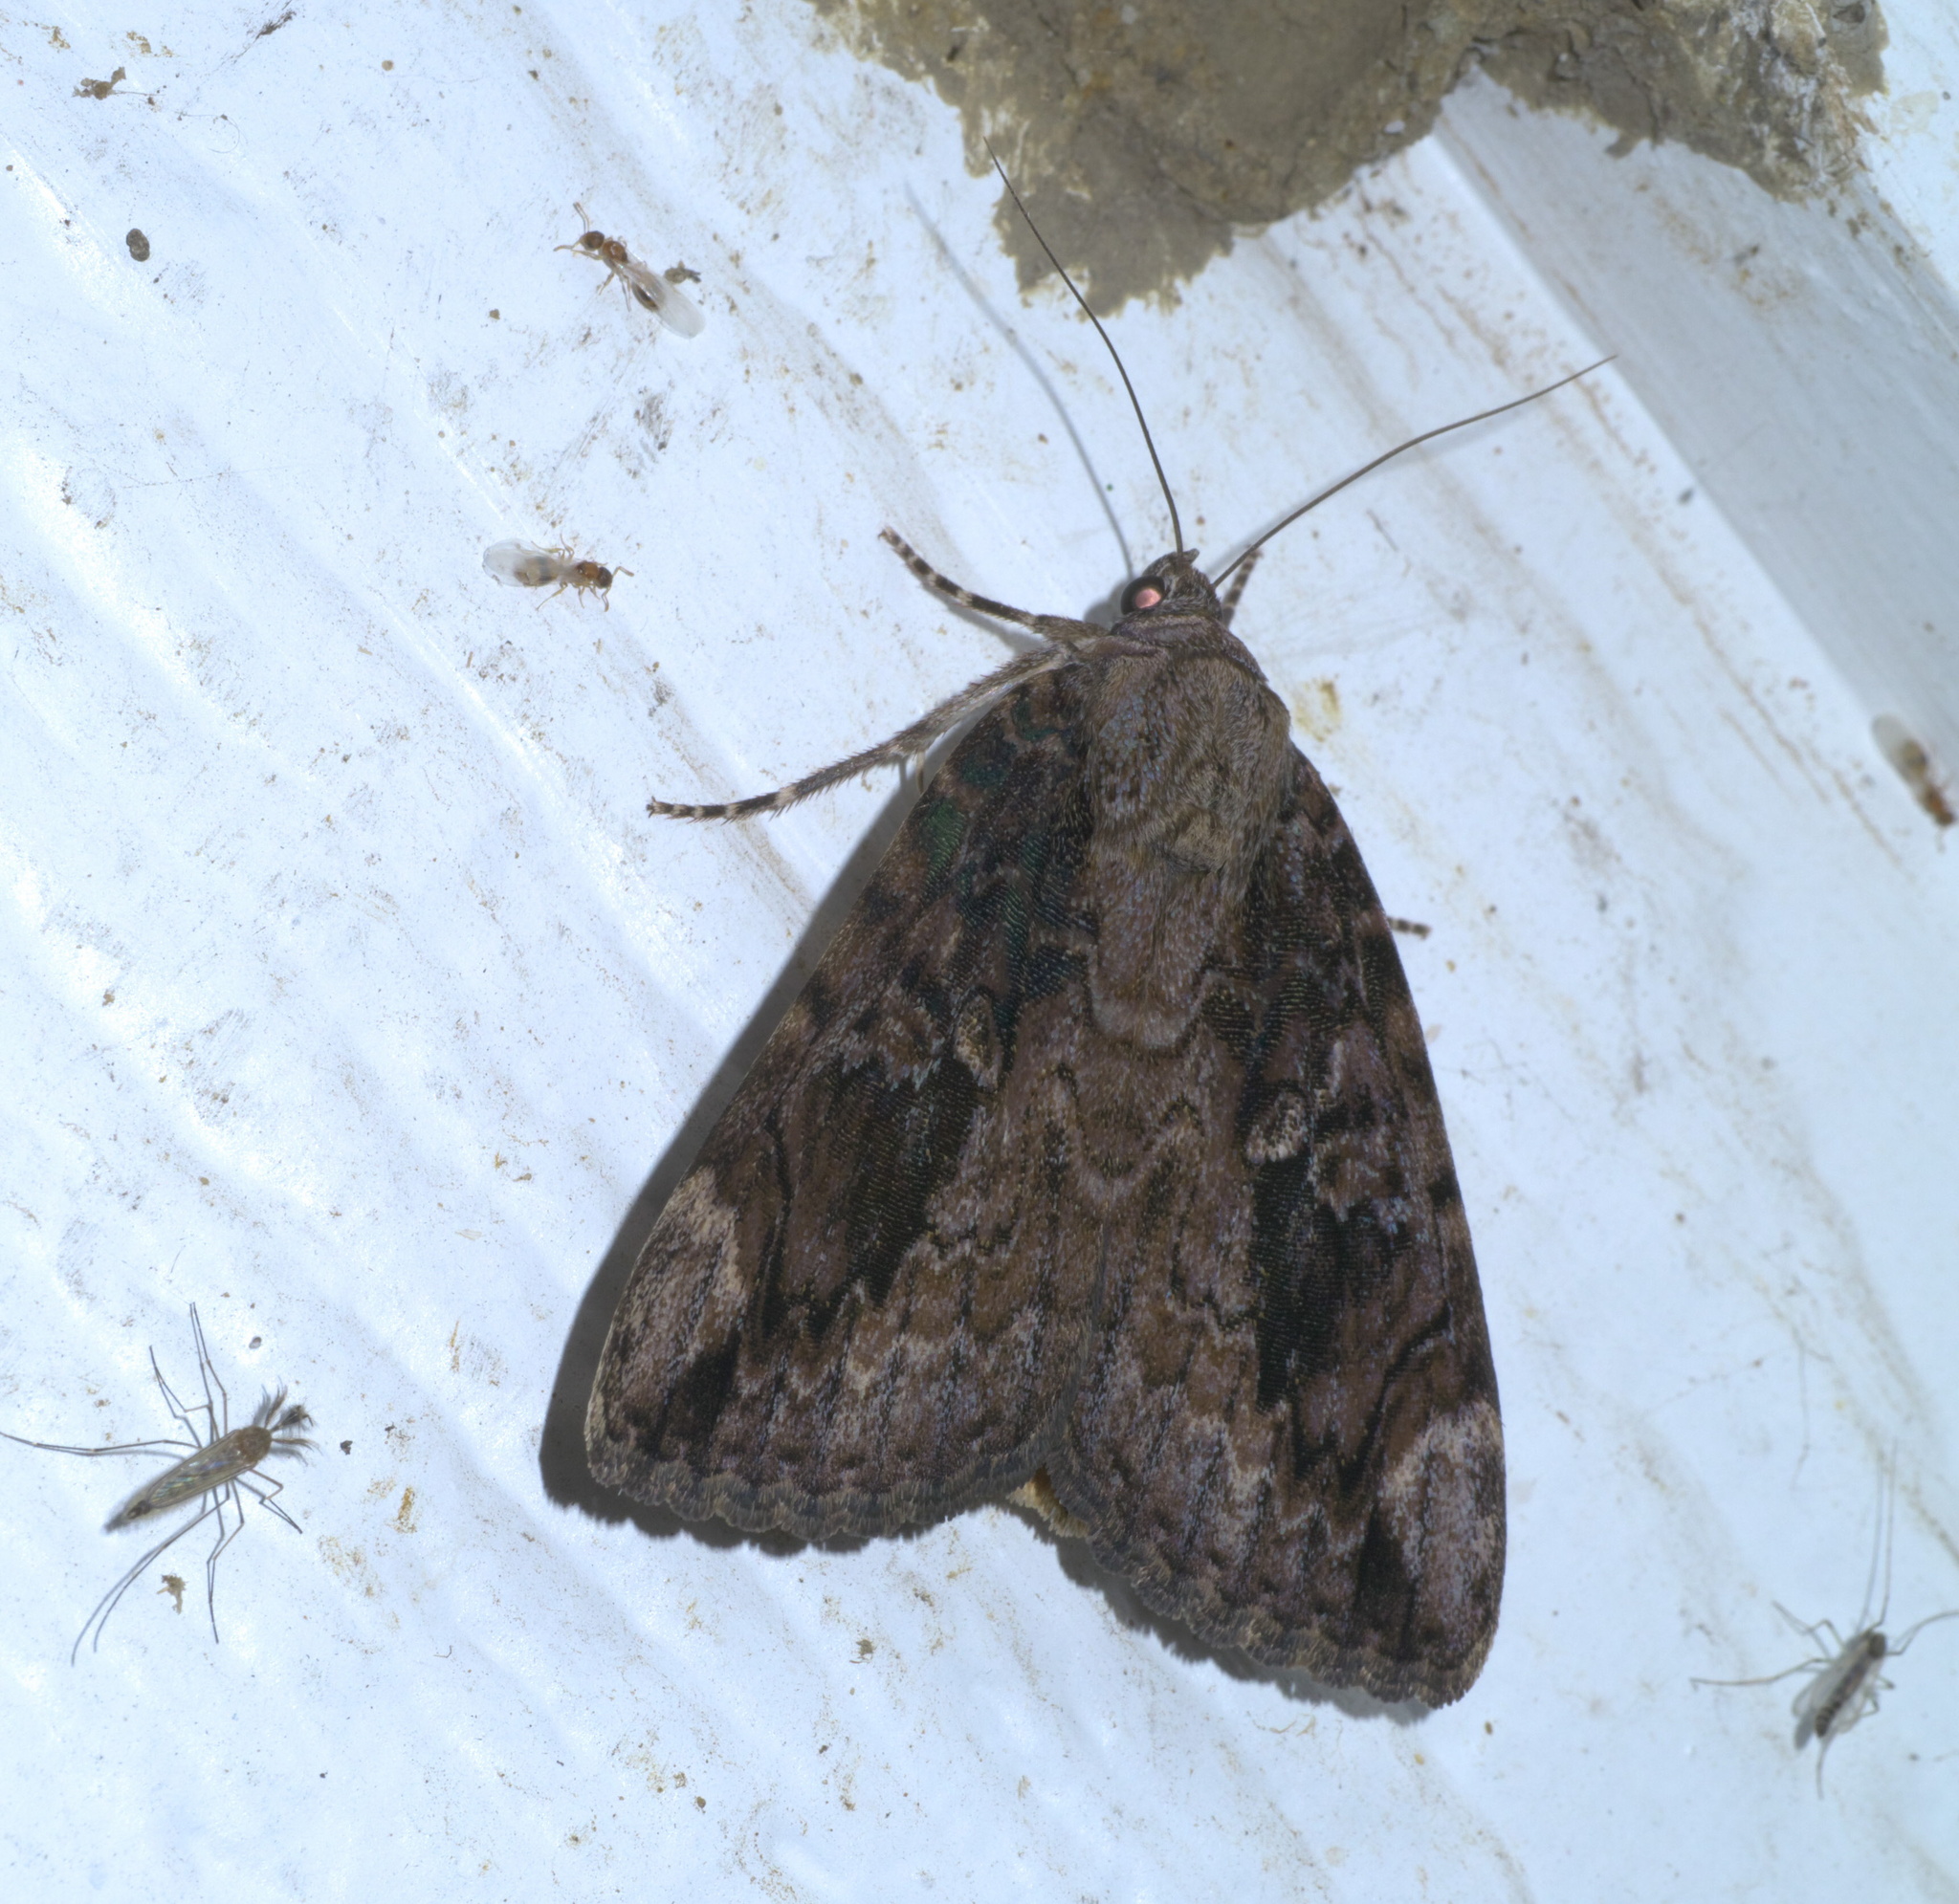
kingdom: Animalia
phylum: Arthropoda
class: Insecta
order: Lepidoptera
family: Erebidae
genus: Catocala
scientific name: Catocala innubens
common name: Betrothed underwing
